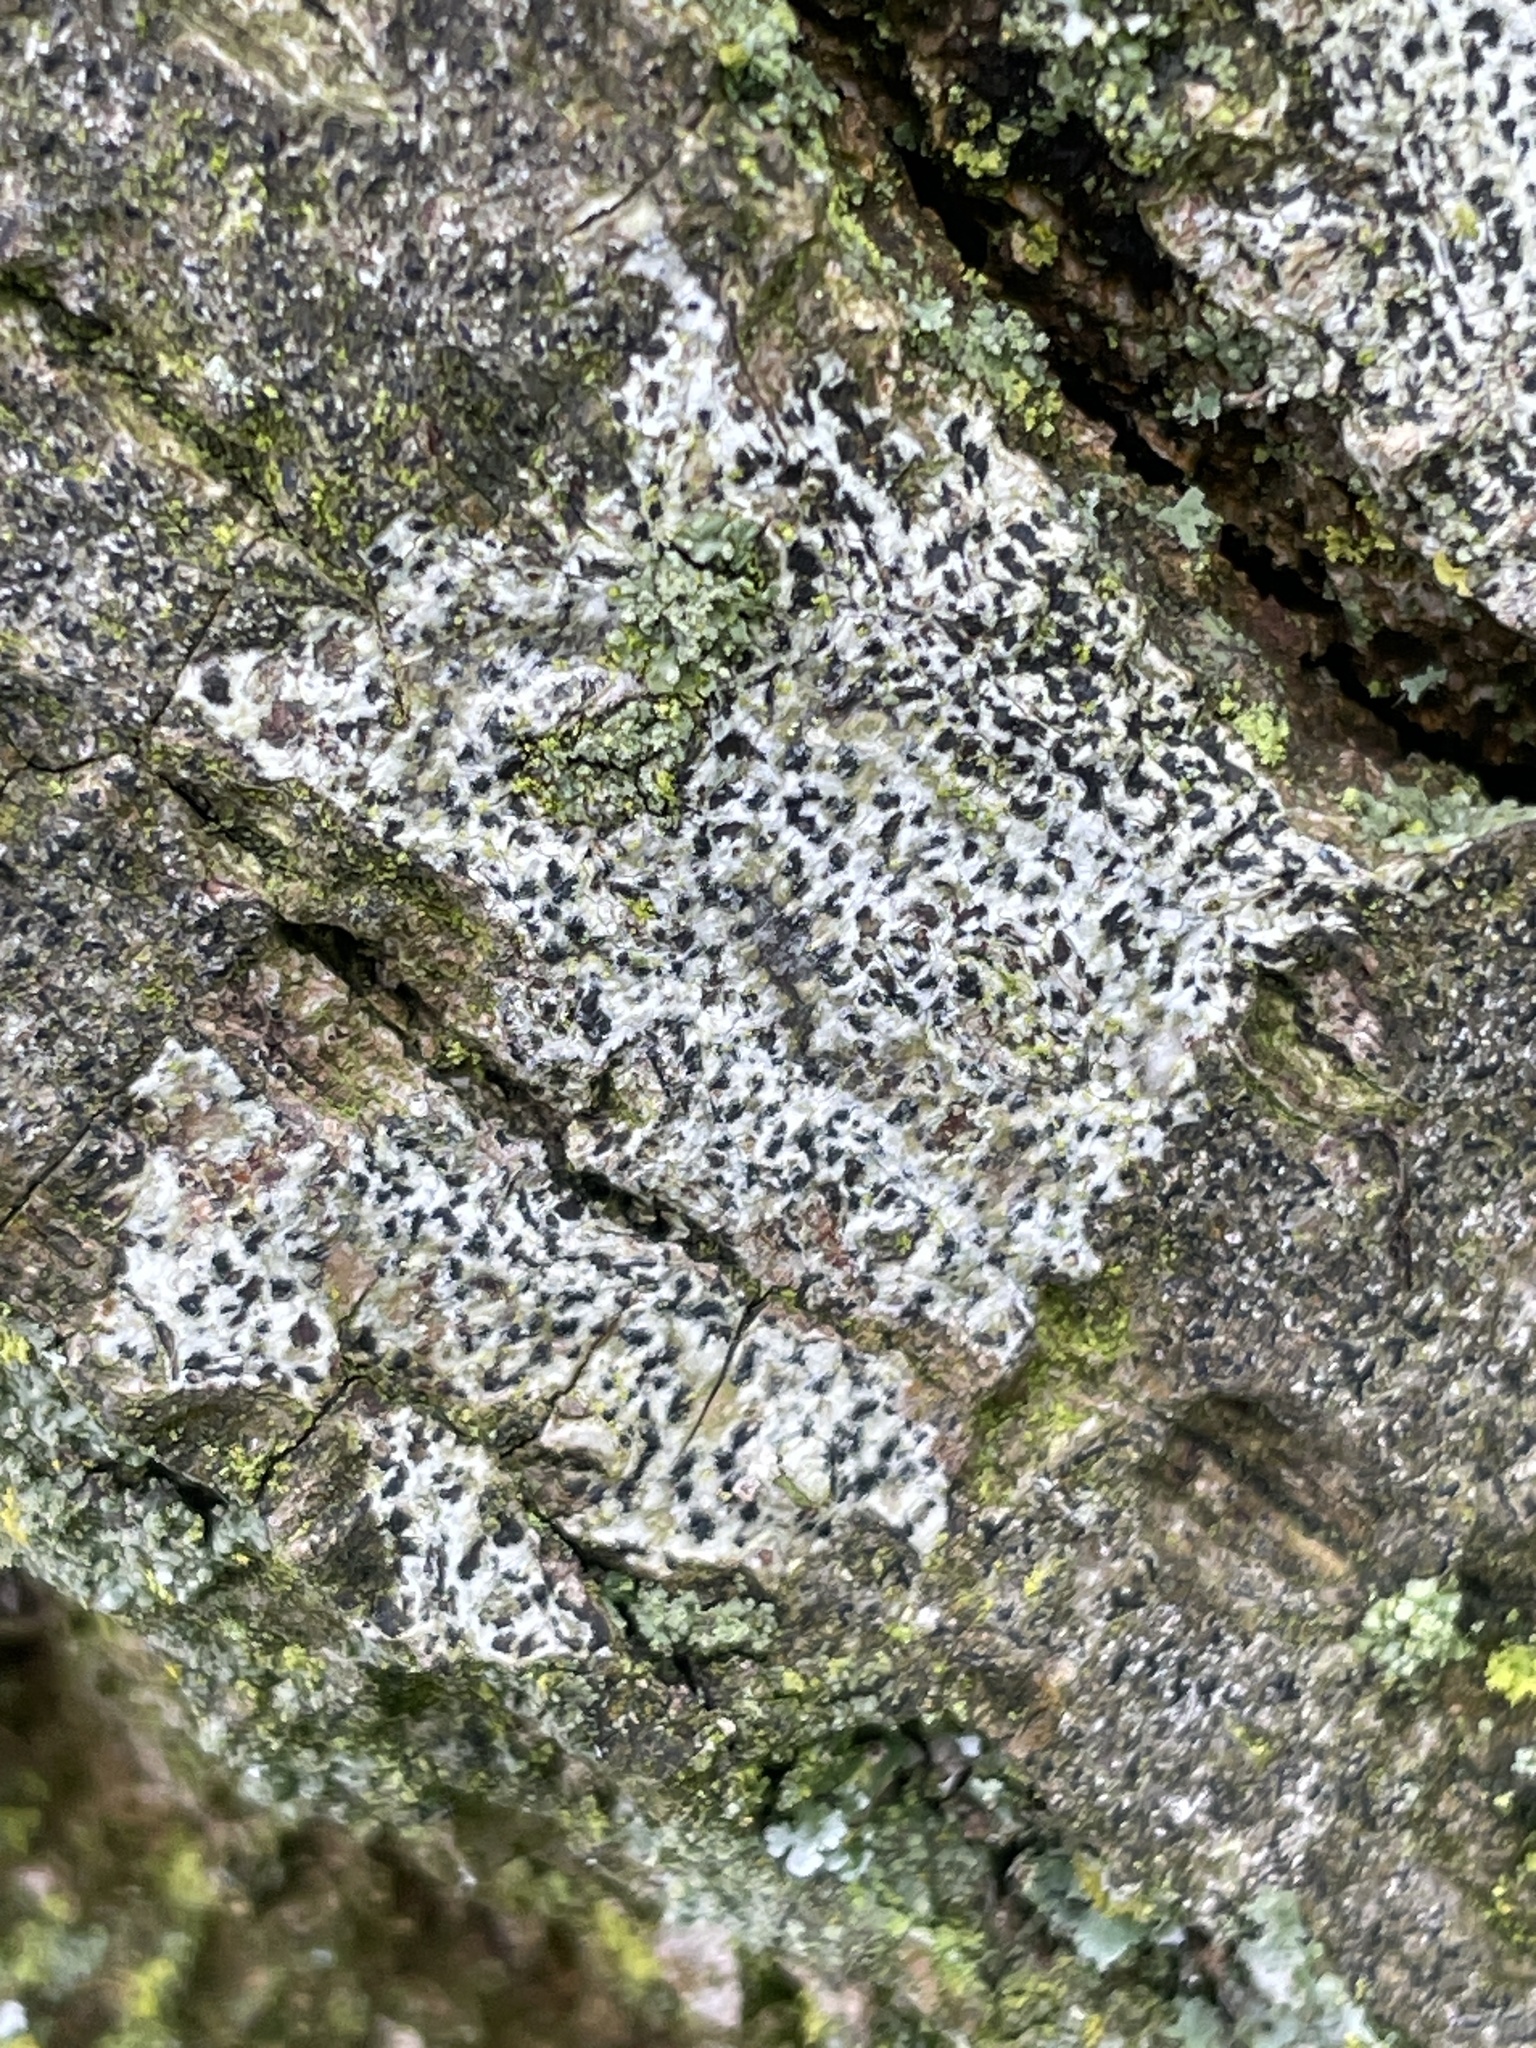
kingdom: Fungi
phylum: Ascomycota
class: Arthoniomycetes
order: Arthoniales
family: Arthoniaceae
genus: Arthonia
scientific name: Arthonia radiata
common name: Asterisk lichen
